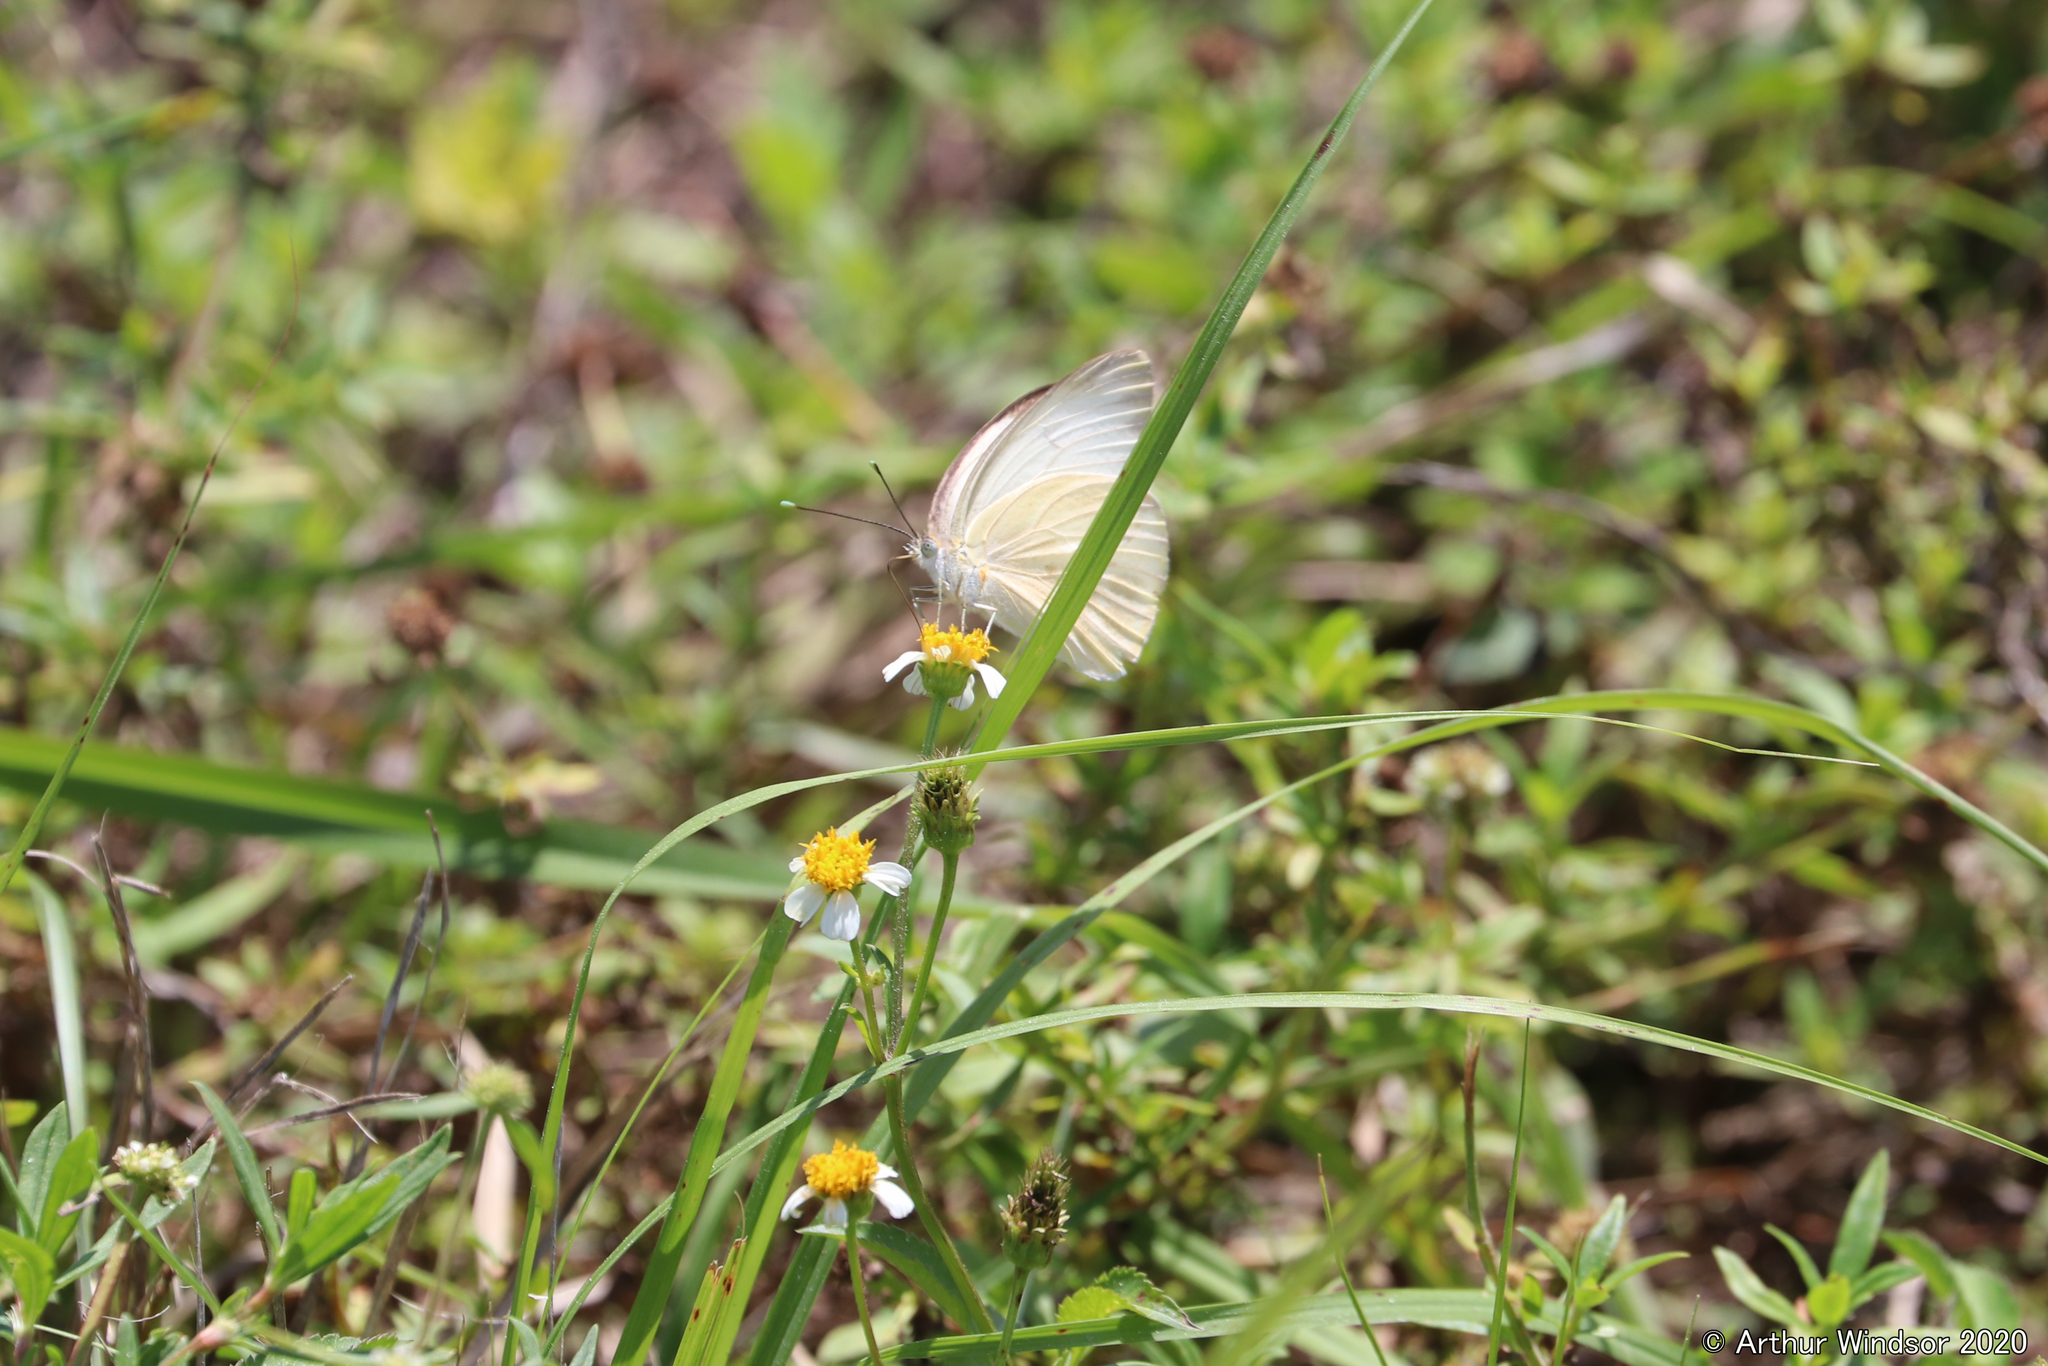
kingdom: Animalia
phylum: Arthropoda
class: Insecta
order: Lepidoptera
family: Pieridae
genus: Ascia
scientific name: Ascia monuste
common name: Great southern white
